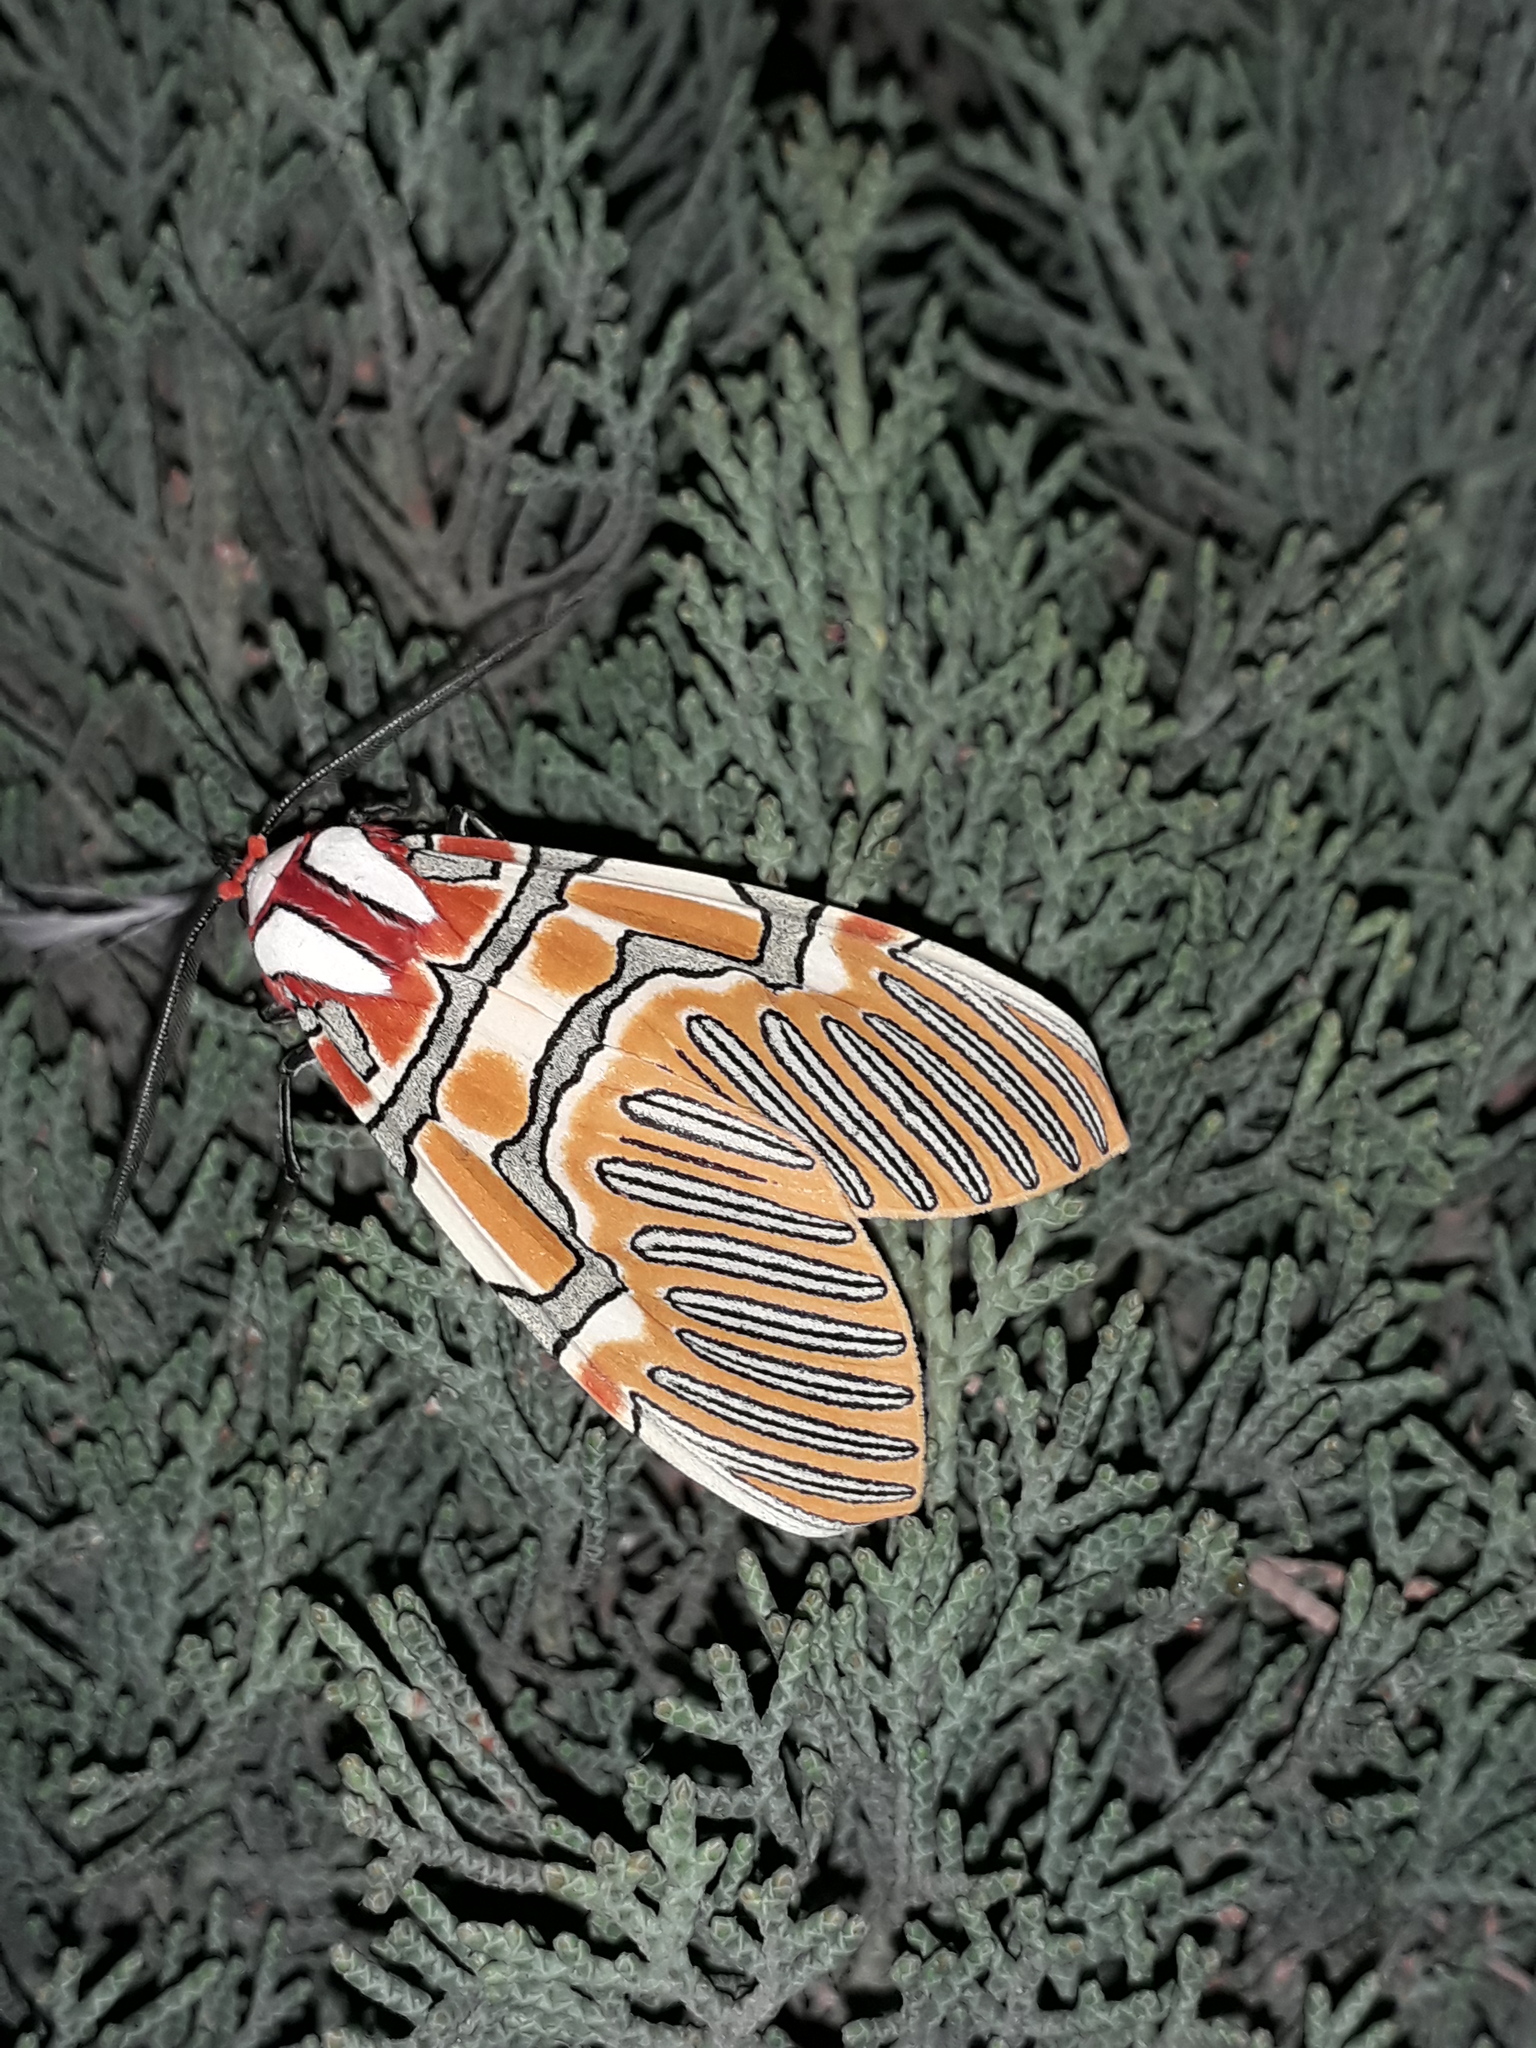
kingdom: Animalia
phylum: Arthropoda
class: Insecta
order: Lepidoptera
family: Erebidae
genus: Anaxita
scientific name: Anaxita decorata
